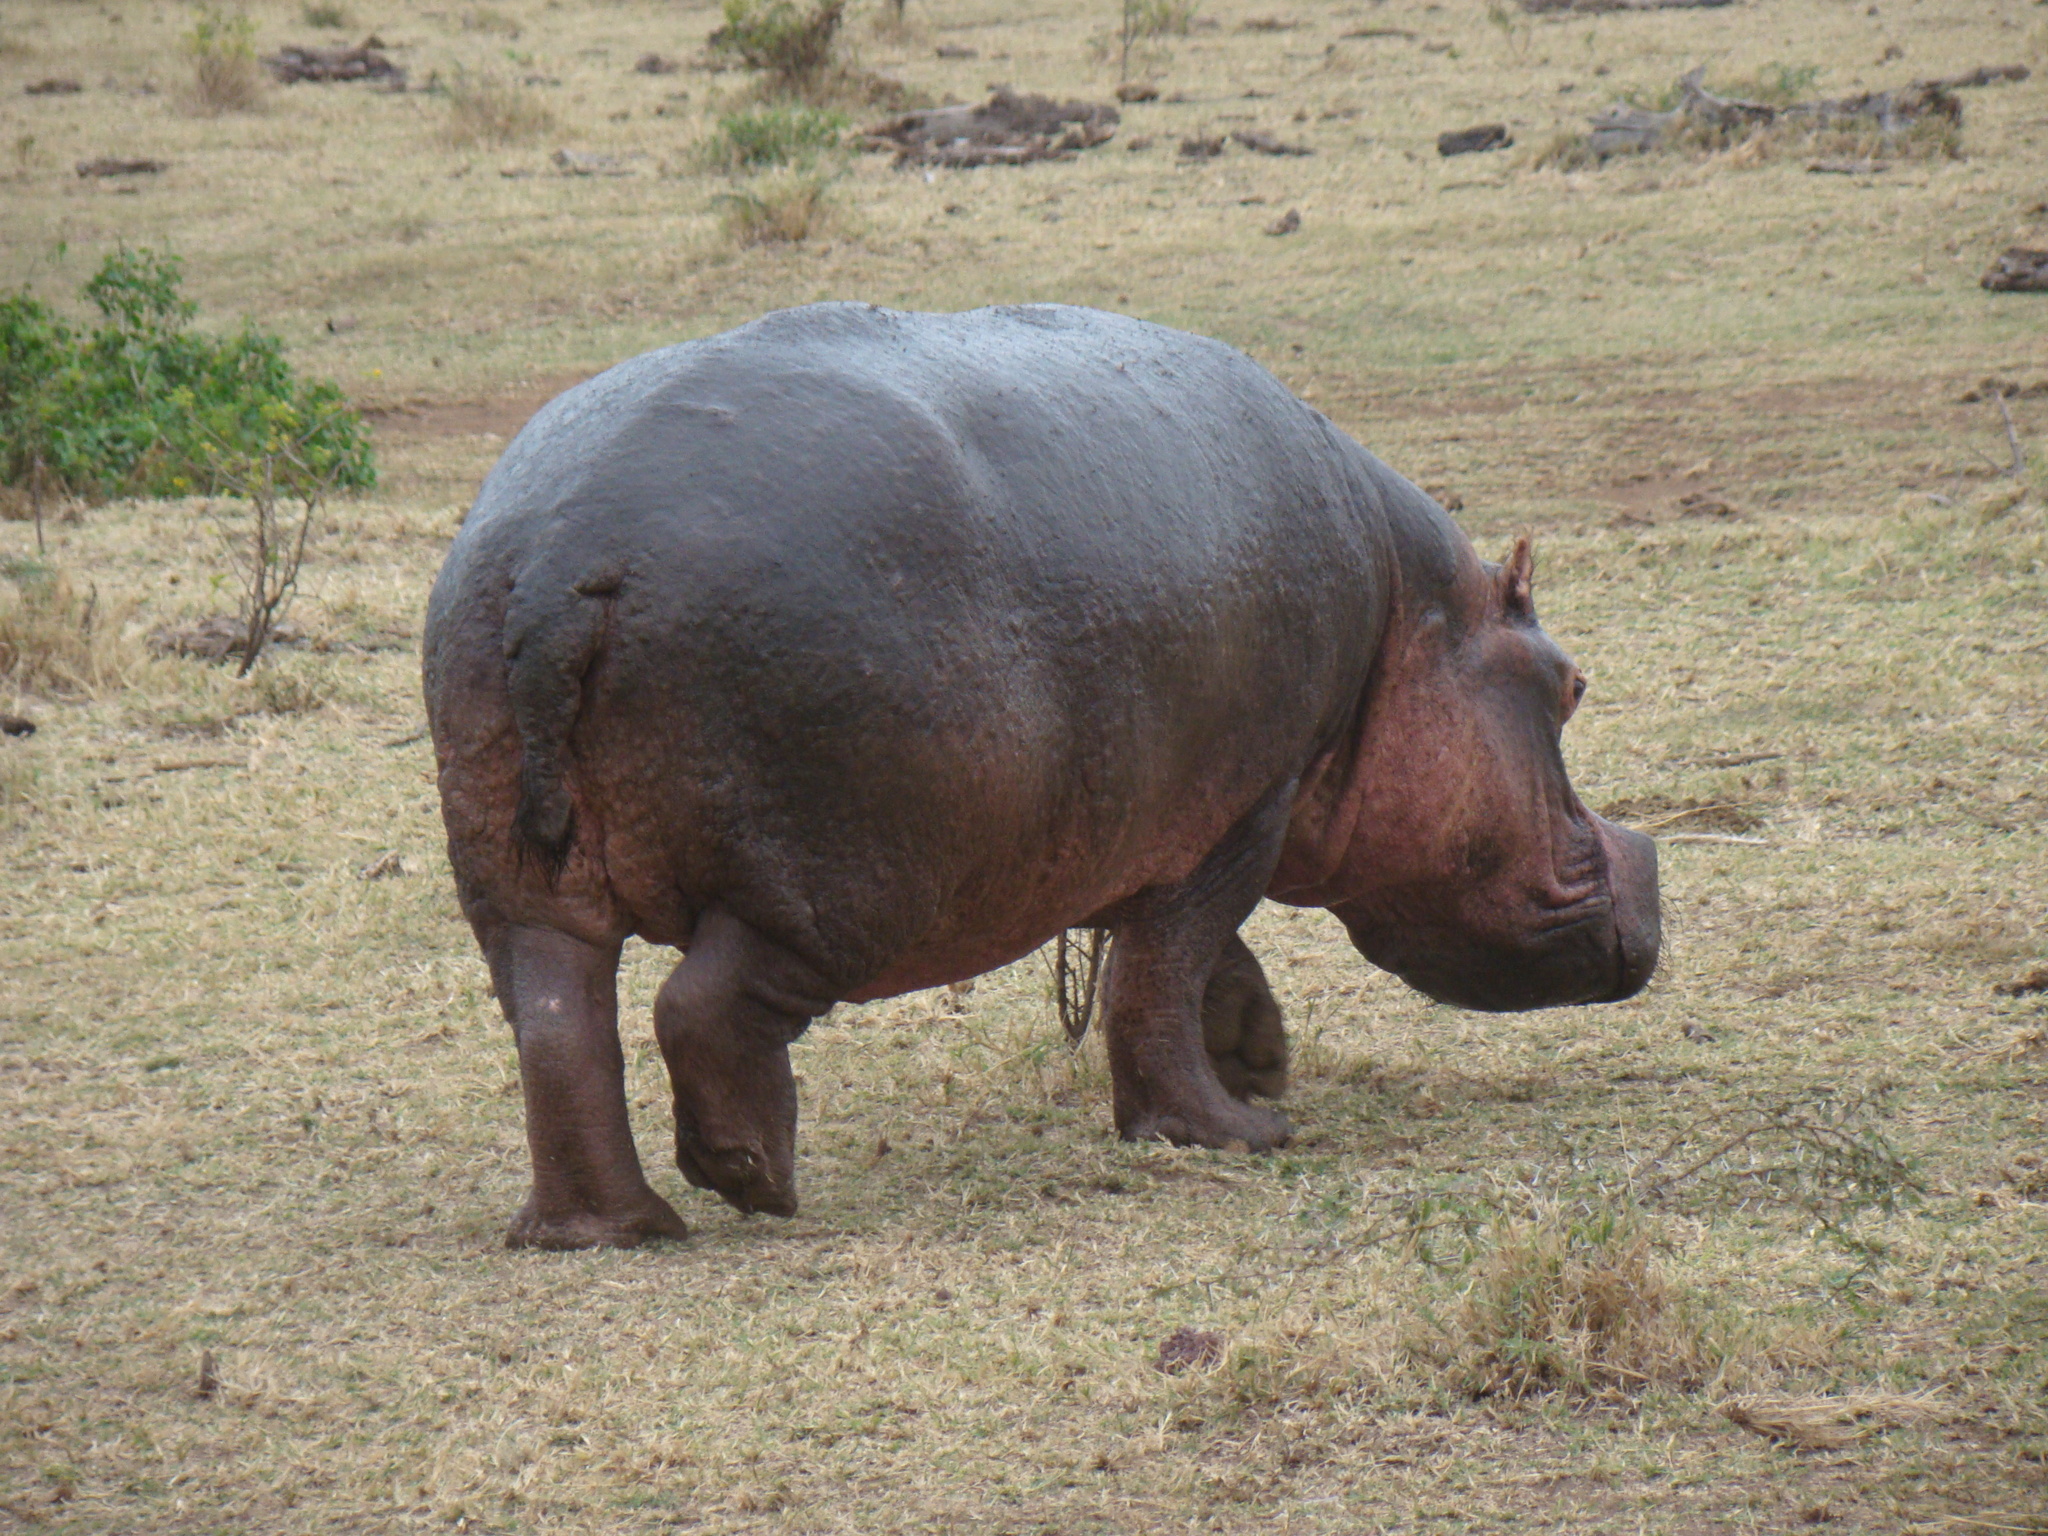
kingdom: Animalia
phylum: Chordata
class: Mammalia
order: Artiodactyla
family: Hippopotamidae
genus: Hippopotamus
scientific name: Hippopotamus amphibius
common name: Common hippopotamus
